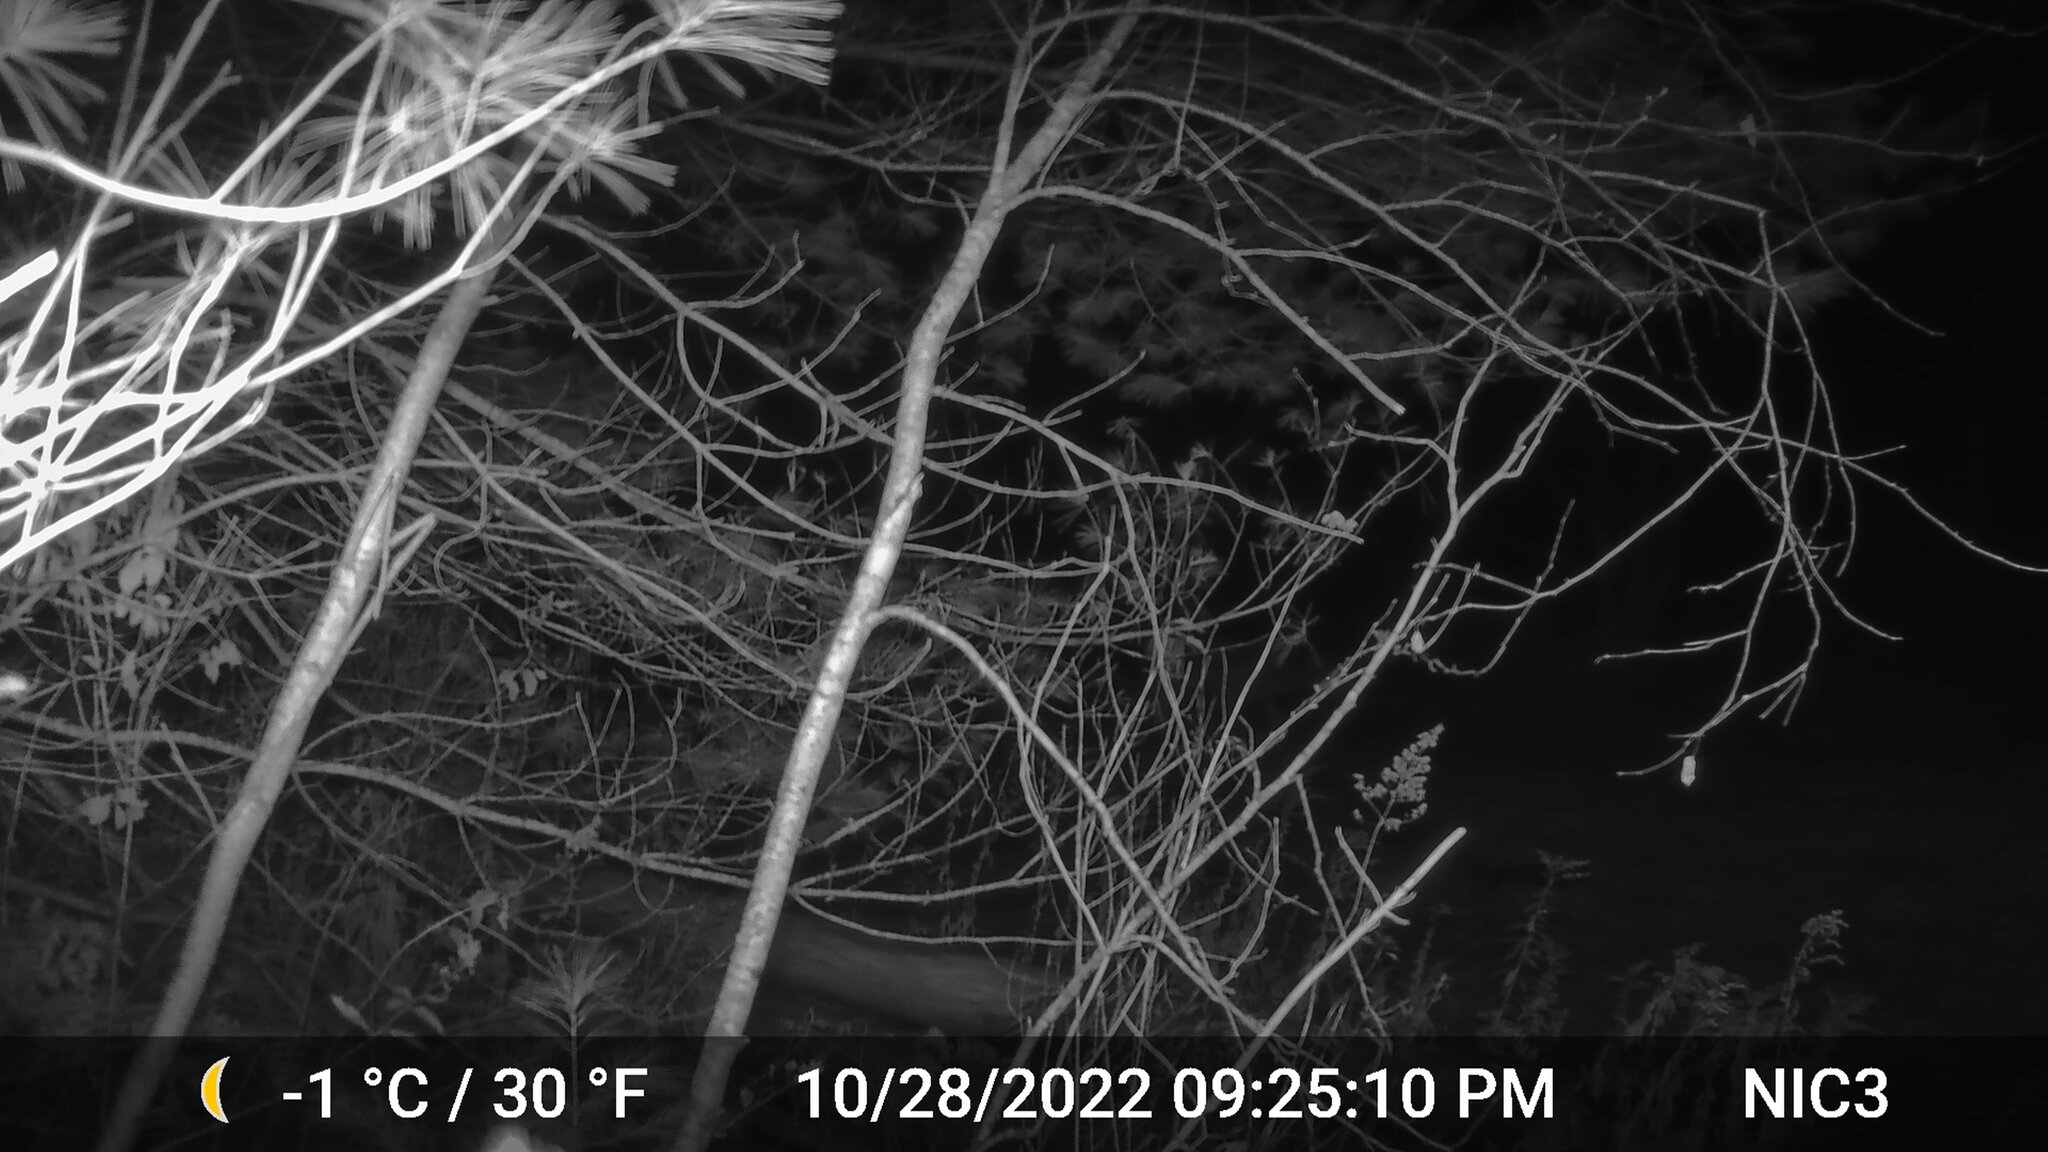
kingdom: Animalia
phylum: Chordata
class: Mammalia
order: Artiodactyla
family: Cervidae
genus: Odocoileus
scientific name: Odocoileus virginianus
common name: White-tailed deer
